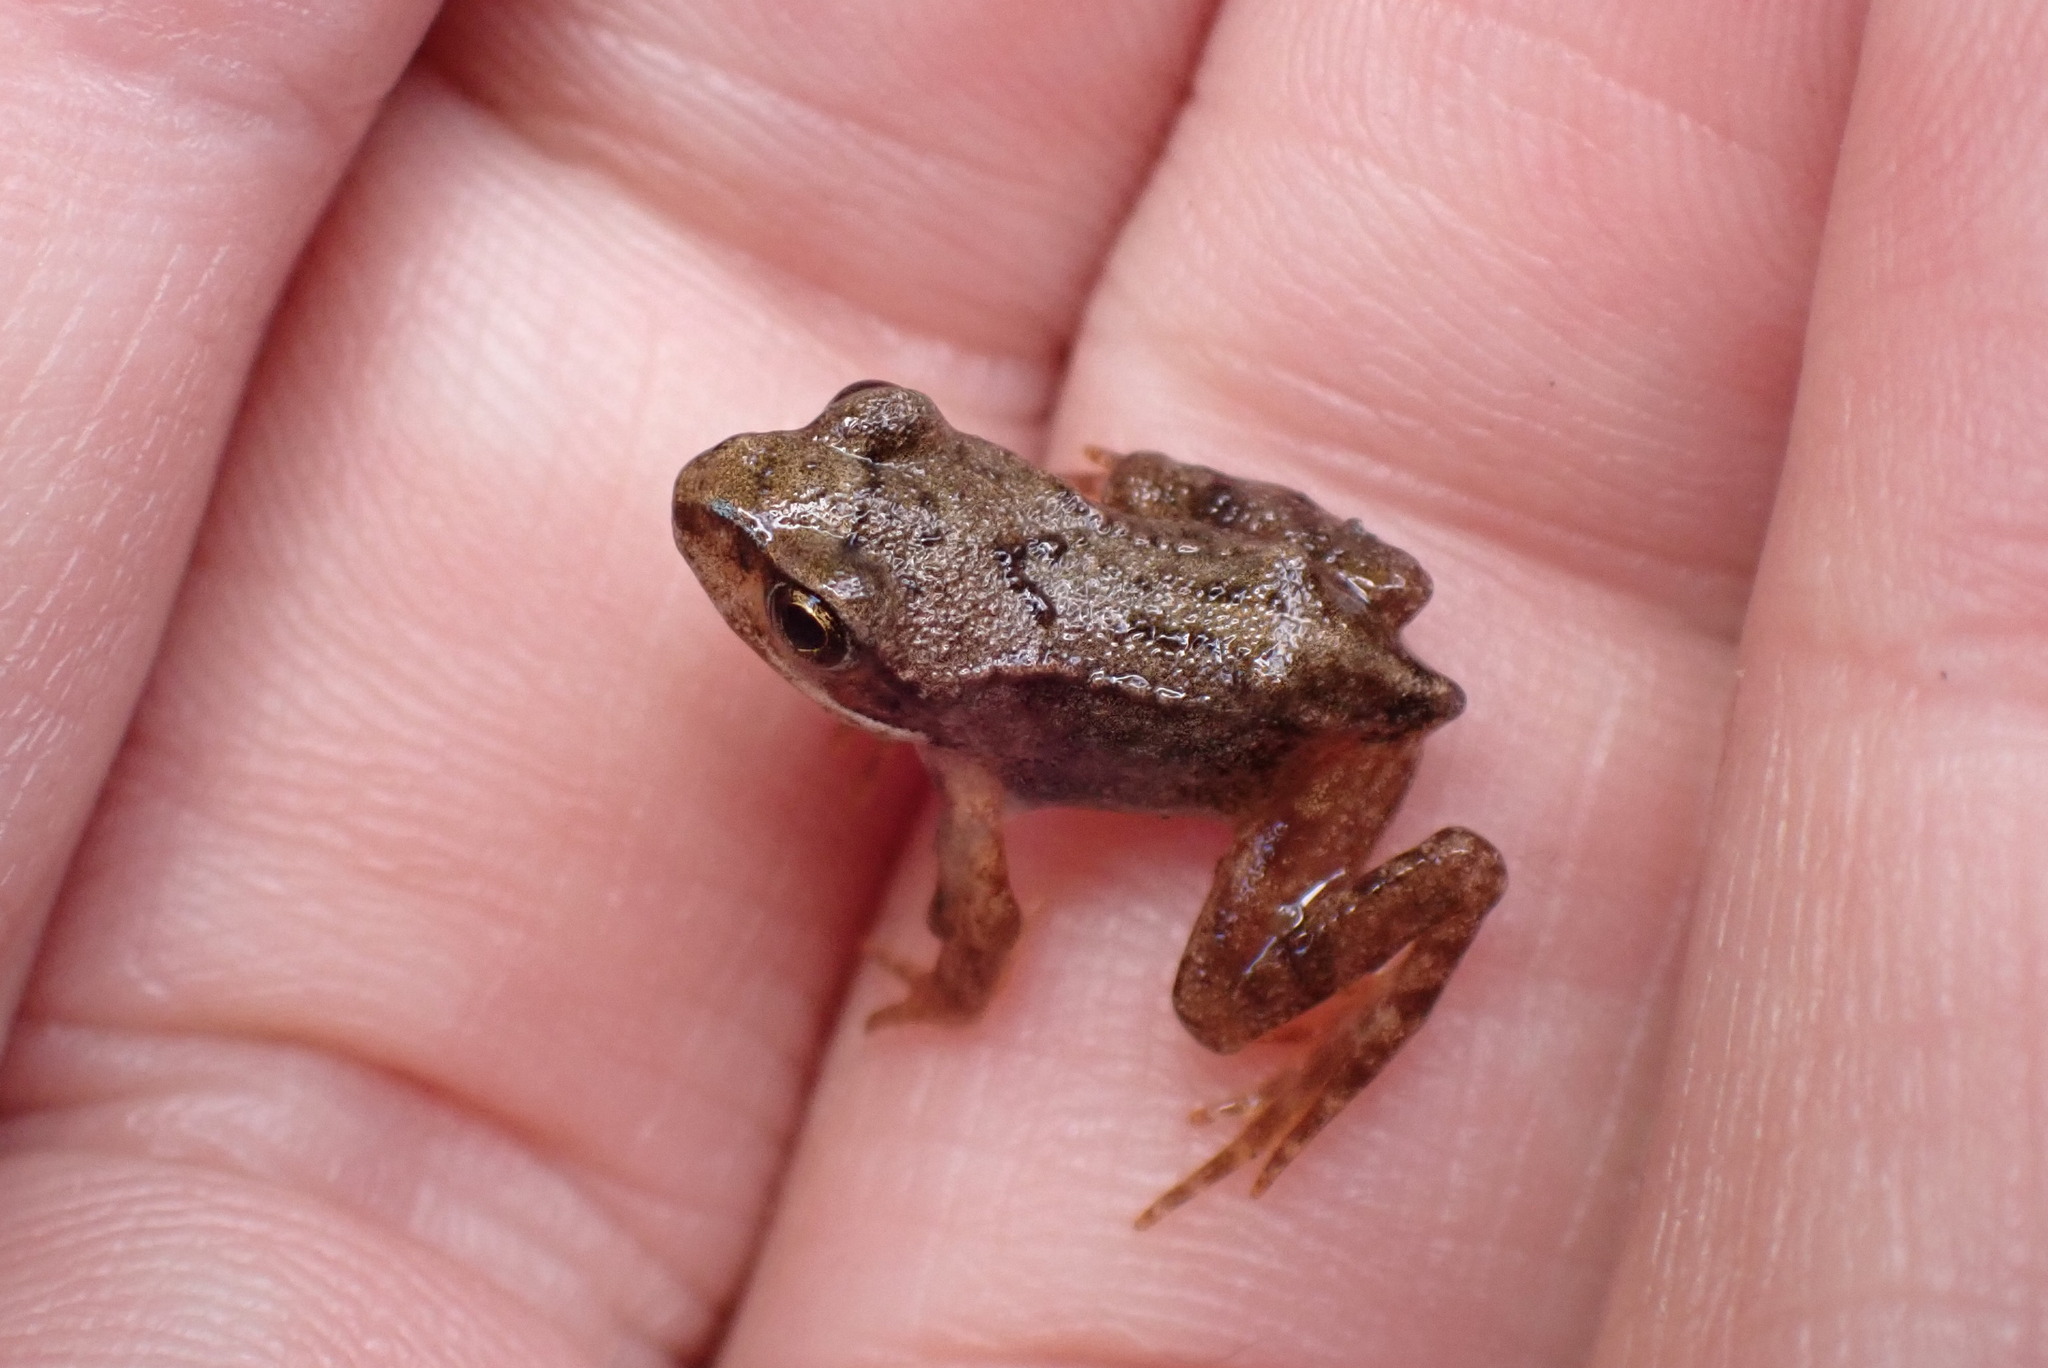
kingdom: Animalia
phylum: Chordata
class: Amphibia
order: Anura
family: Ranidae
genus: Rana
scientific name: Rana temporaria
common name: Common frog
